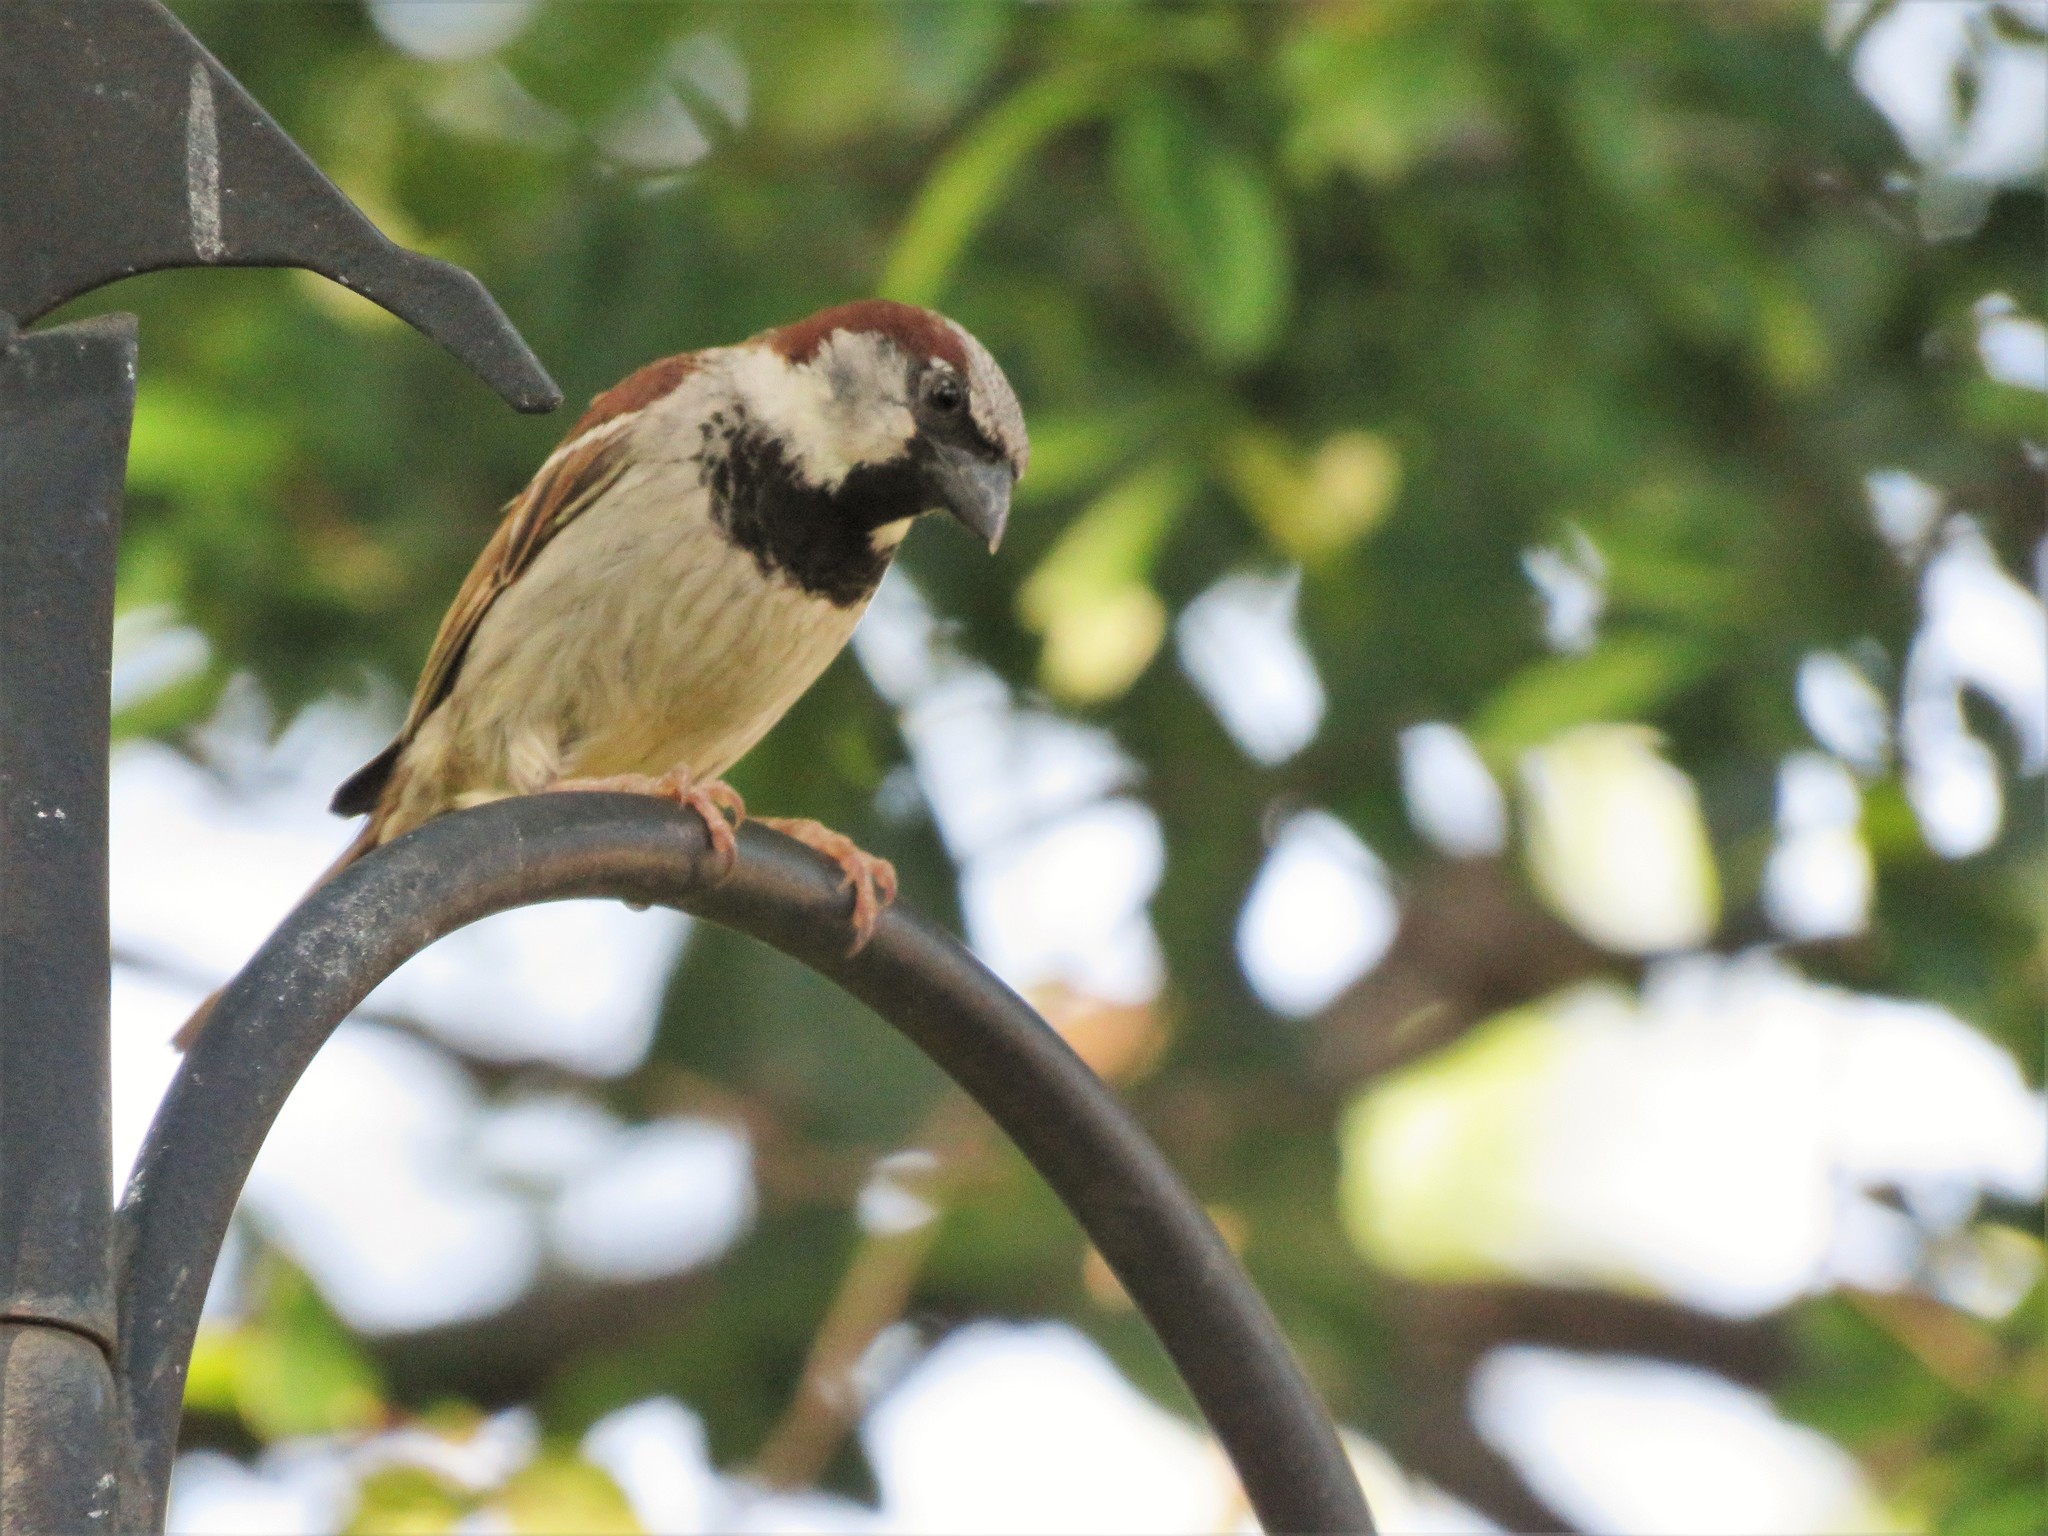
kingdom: Animalia
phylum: Chordata
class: Aves
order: Passeriformes
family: Passeridae
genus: Passer
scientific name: Passer domesticus
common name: House sparrow
